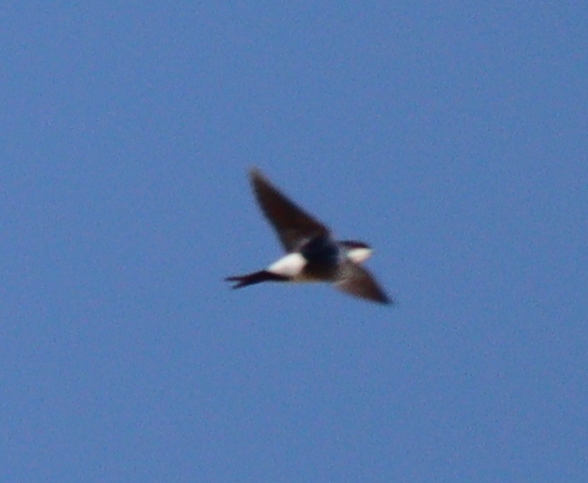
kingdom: Animalia
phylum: Chordata
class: Aves
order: Passeriformes
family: Hirundinidae
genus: Delichon
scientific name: Delichon urbicum
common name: Common house martin
